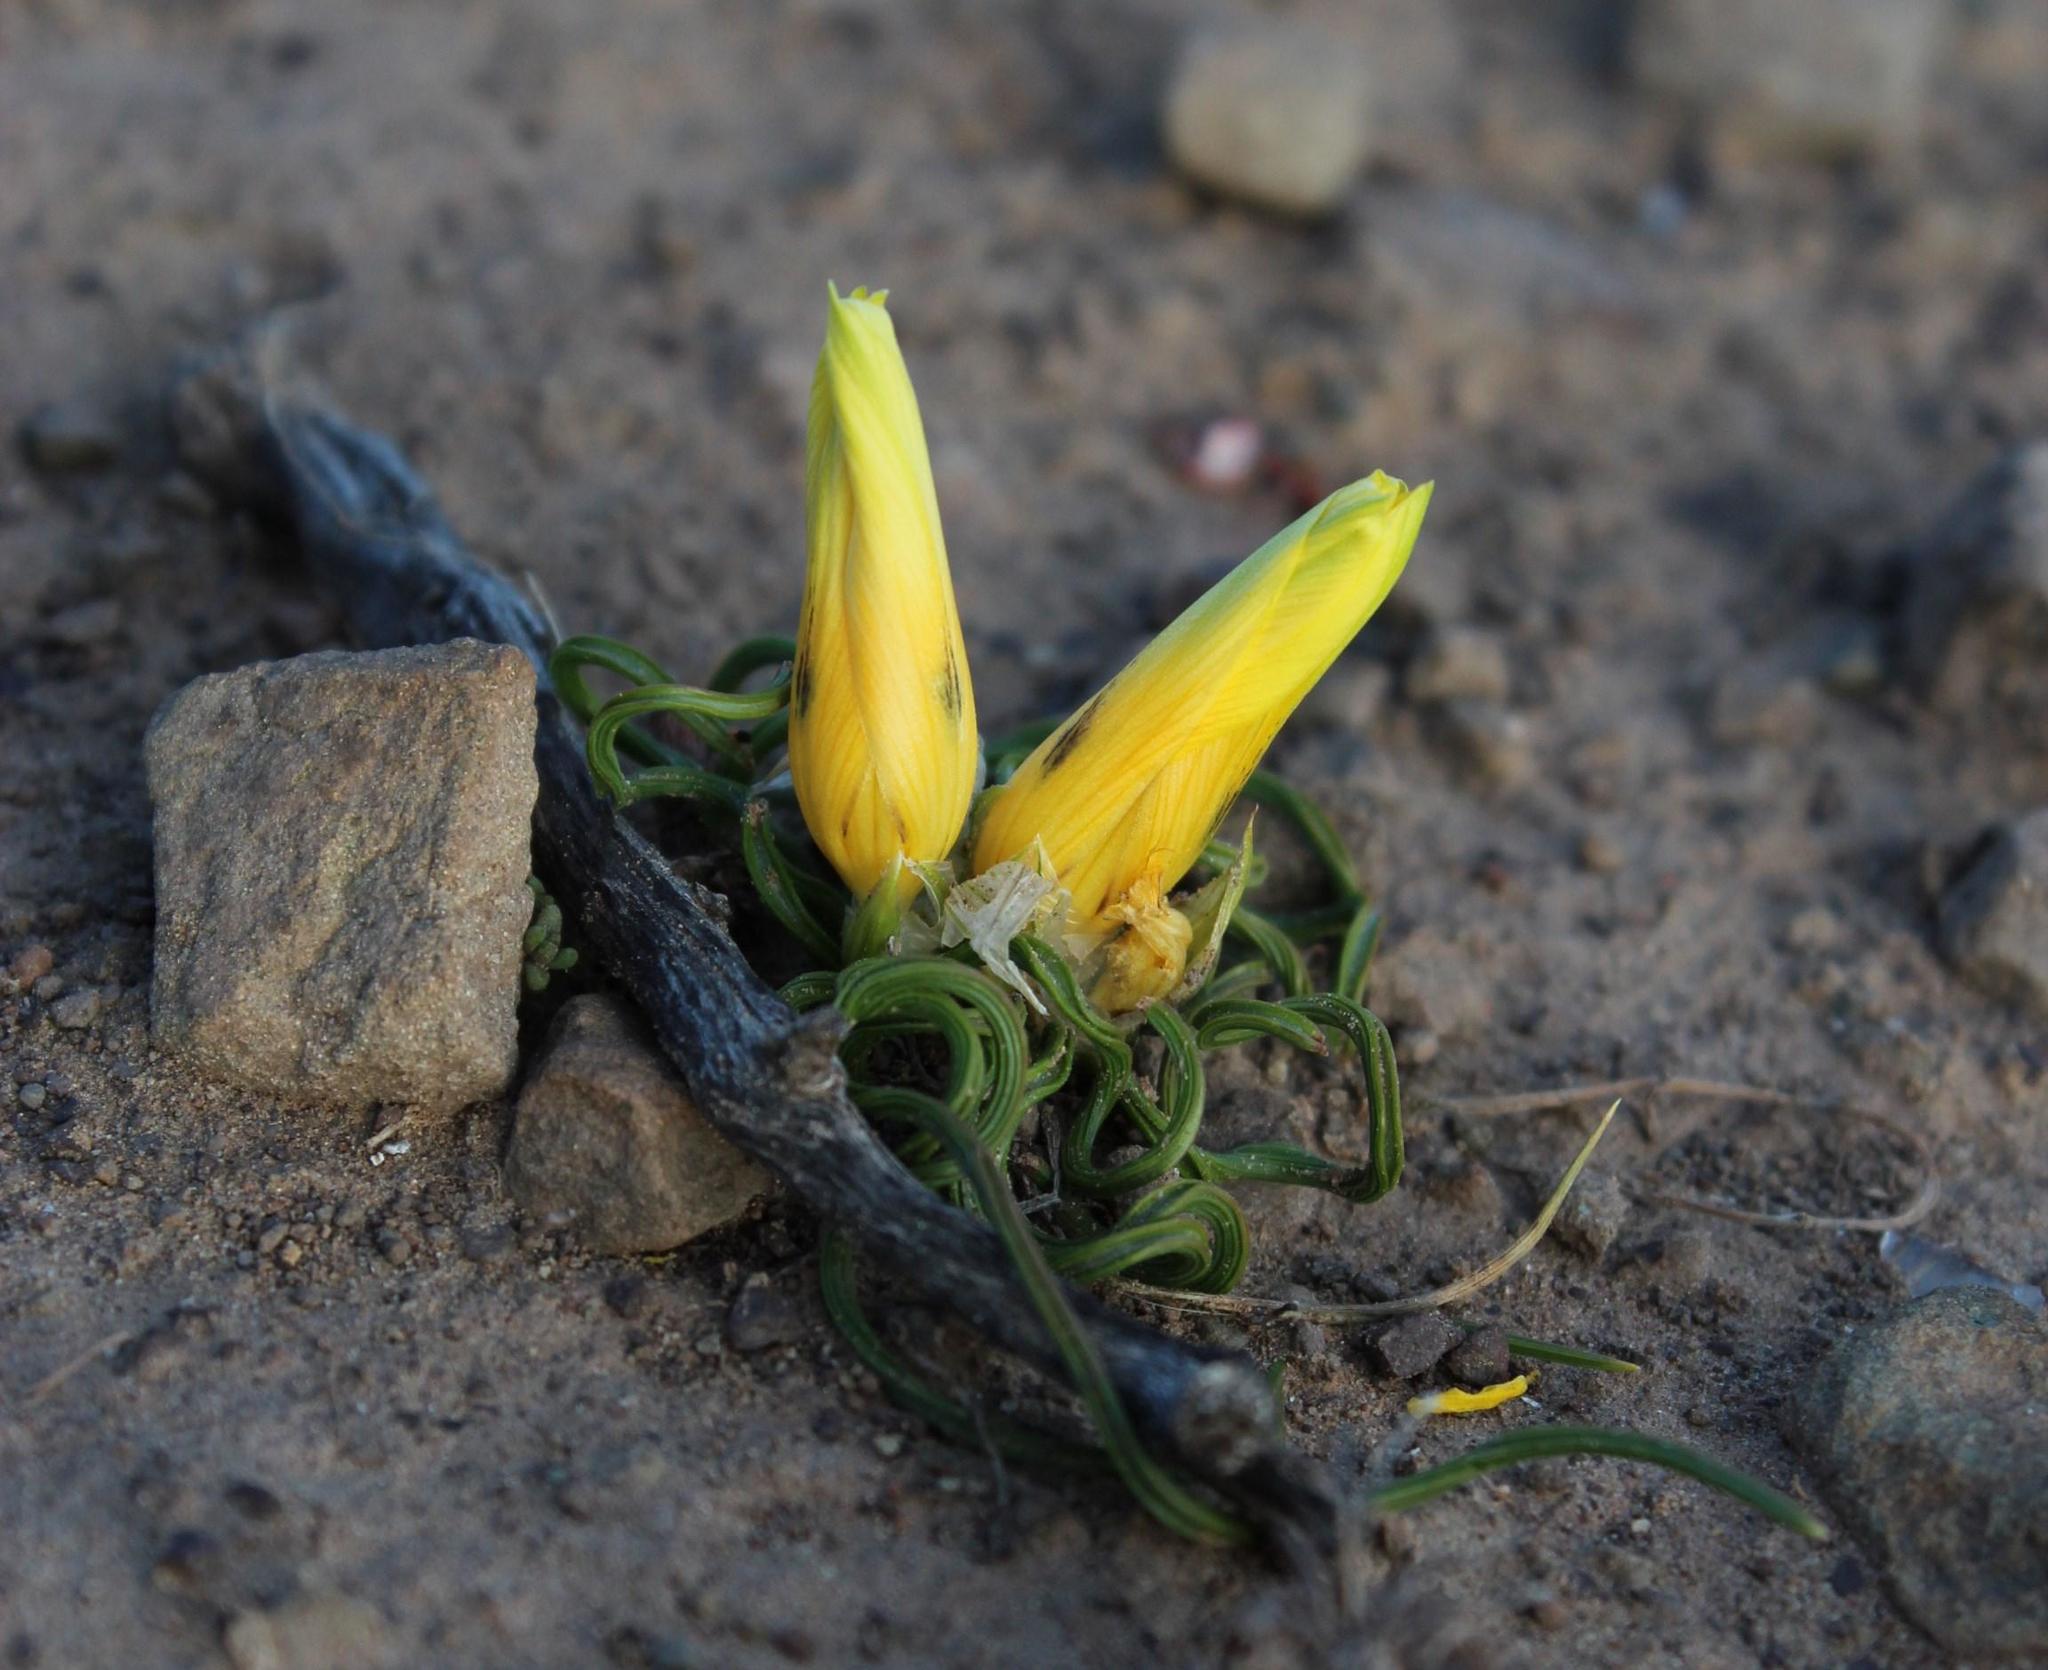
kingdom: Plantae
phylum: Tracheophyta
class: Liliopsida
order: Asparagales
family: Iridaceae
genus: Romulea
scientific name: Romulea tortuosa
